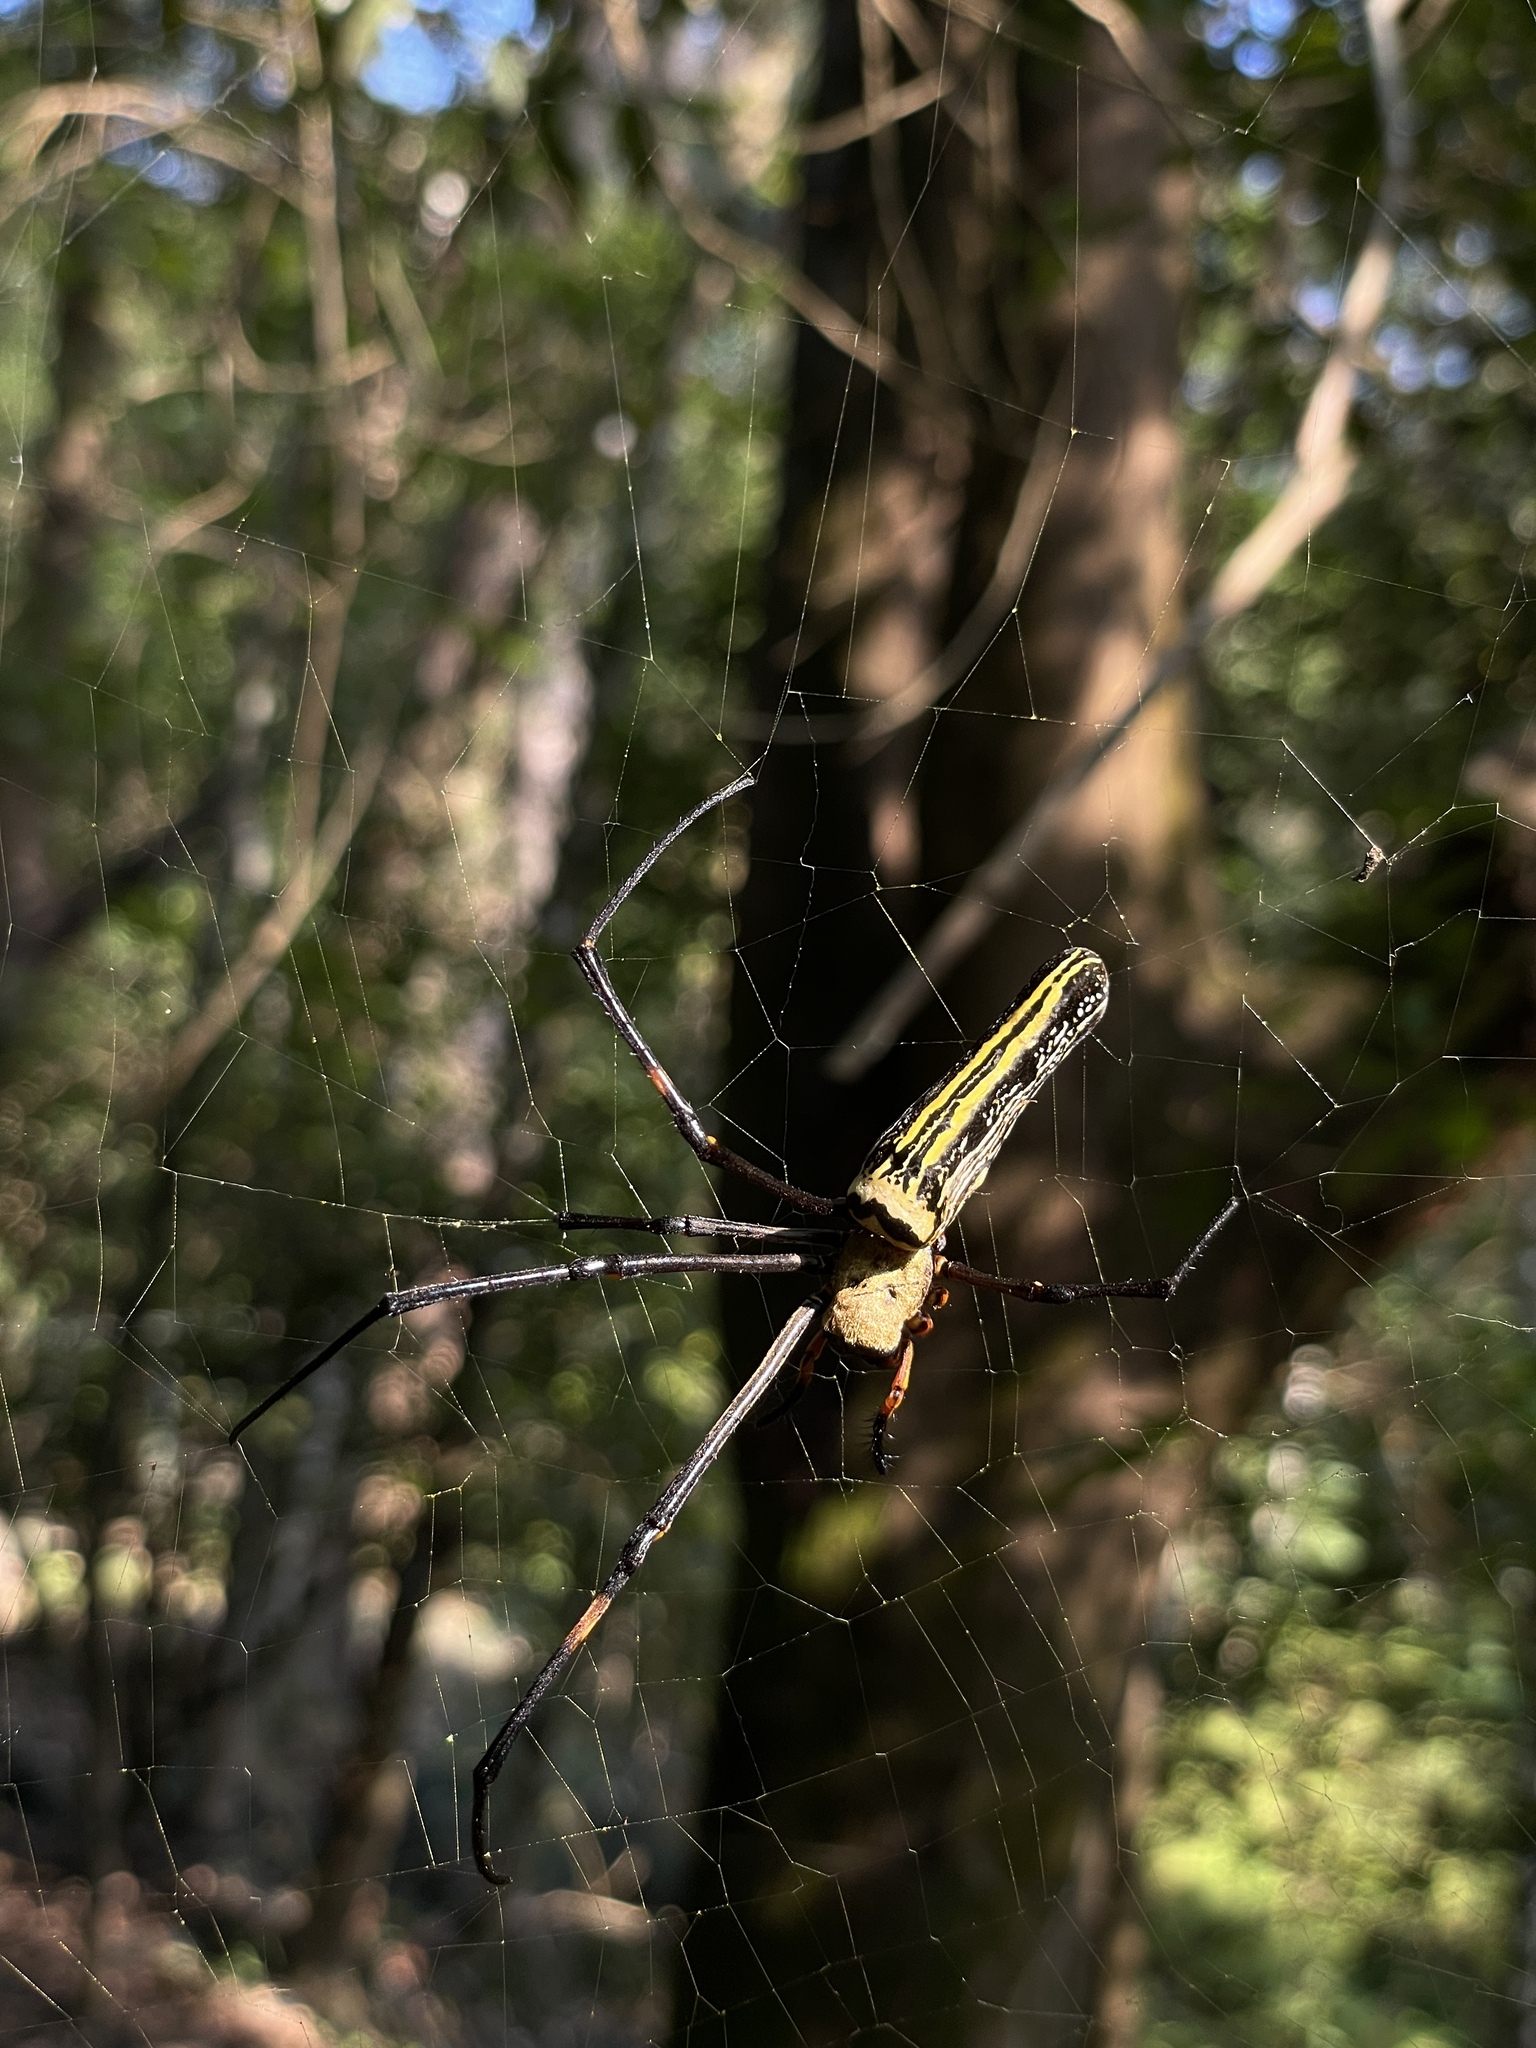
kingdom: Animalia
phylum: Arthropoda
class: Arachnida
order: Araneae
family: Araneidae
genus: Nephila
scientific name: Nephila pilipes
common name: Giant golden orb weaver
